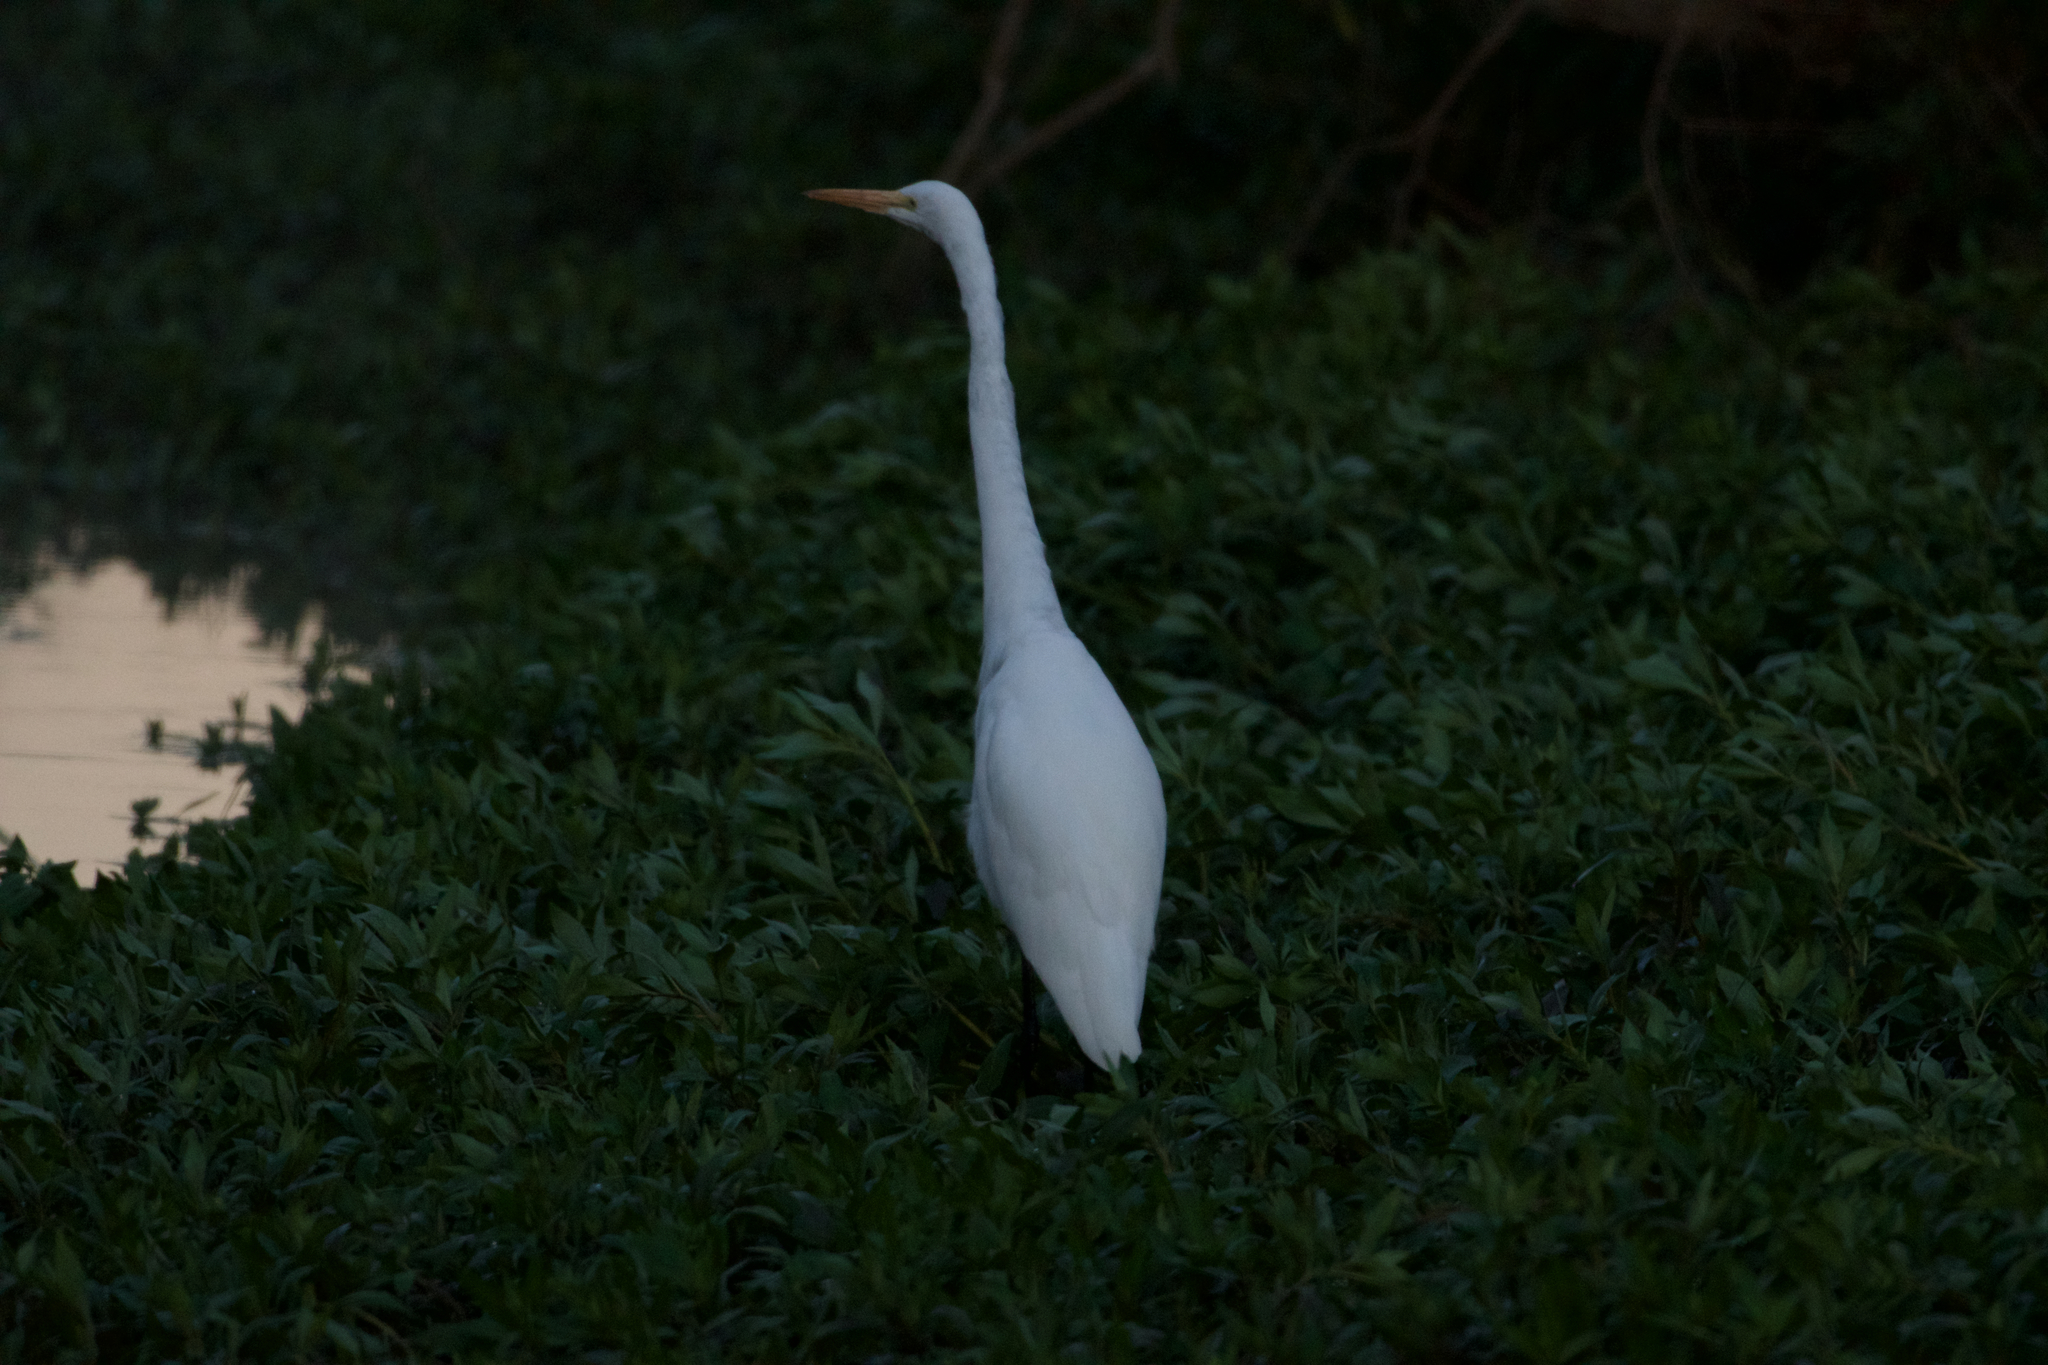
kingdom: Animalia
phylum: Chordata
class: Aves
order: Pelecaniformes
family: Ardeidae
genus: Ardea
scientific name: Ardea alba
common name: Great egret
